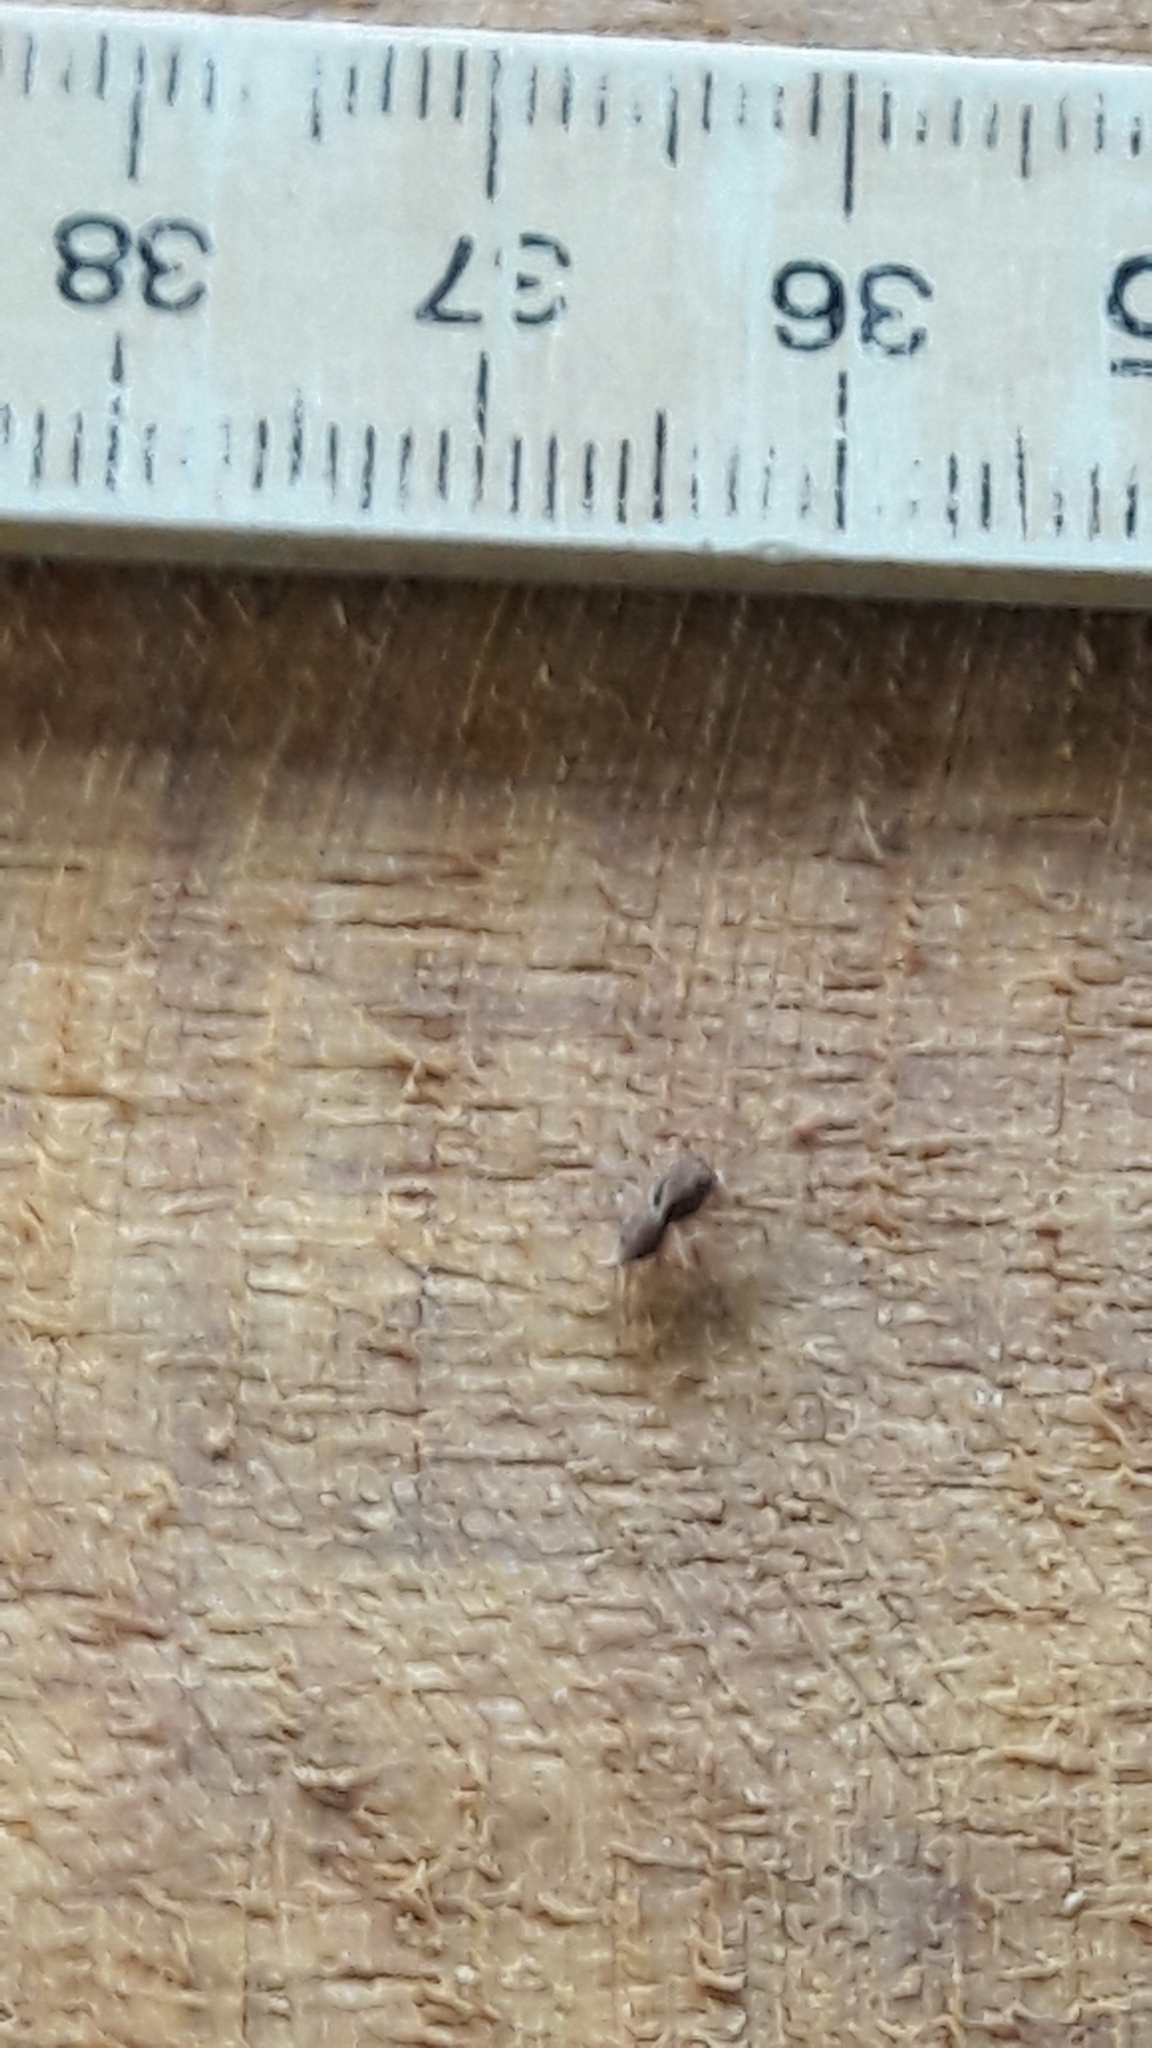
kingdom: Animalia
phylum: Arthropoda
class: Arachnida
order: Araneae
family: Salticidae
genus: Marma
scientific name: Marma nigritarsis
